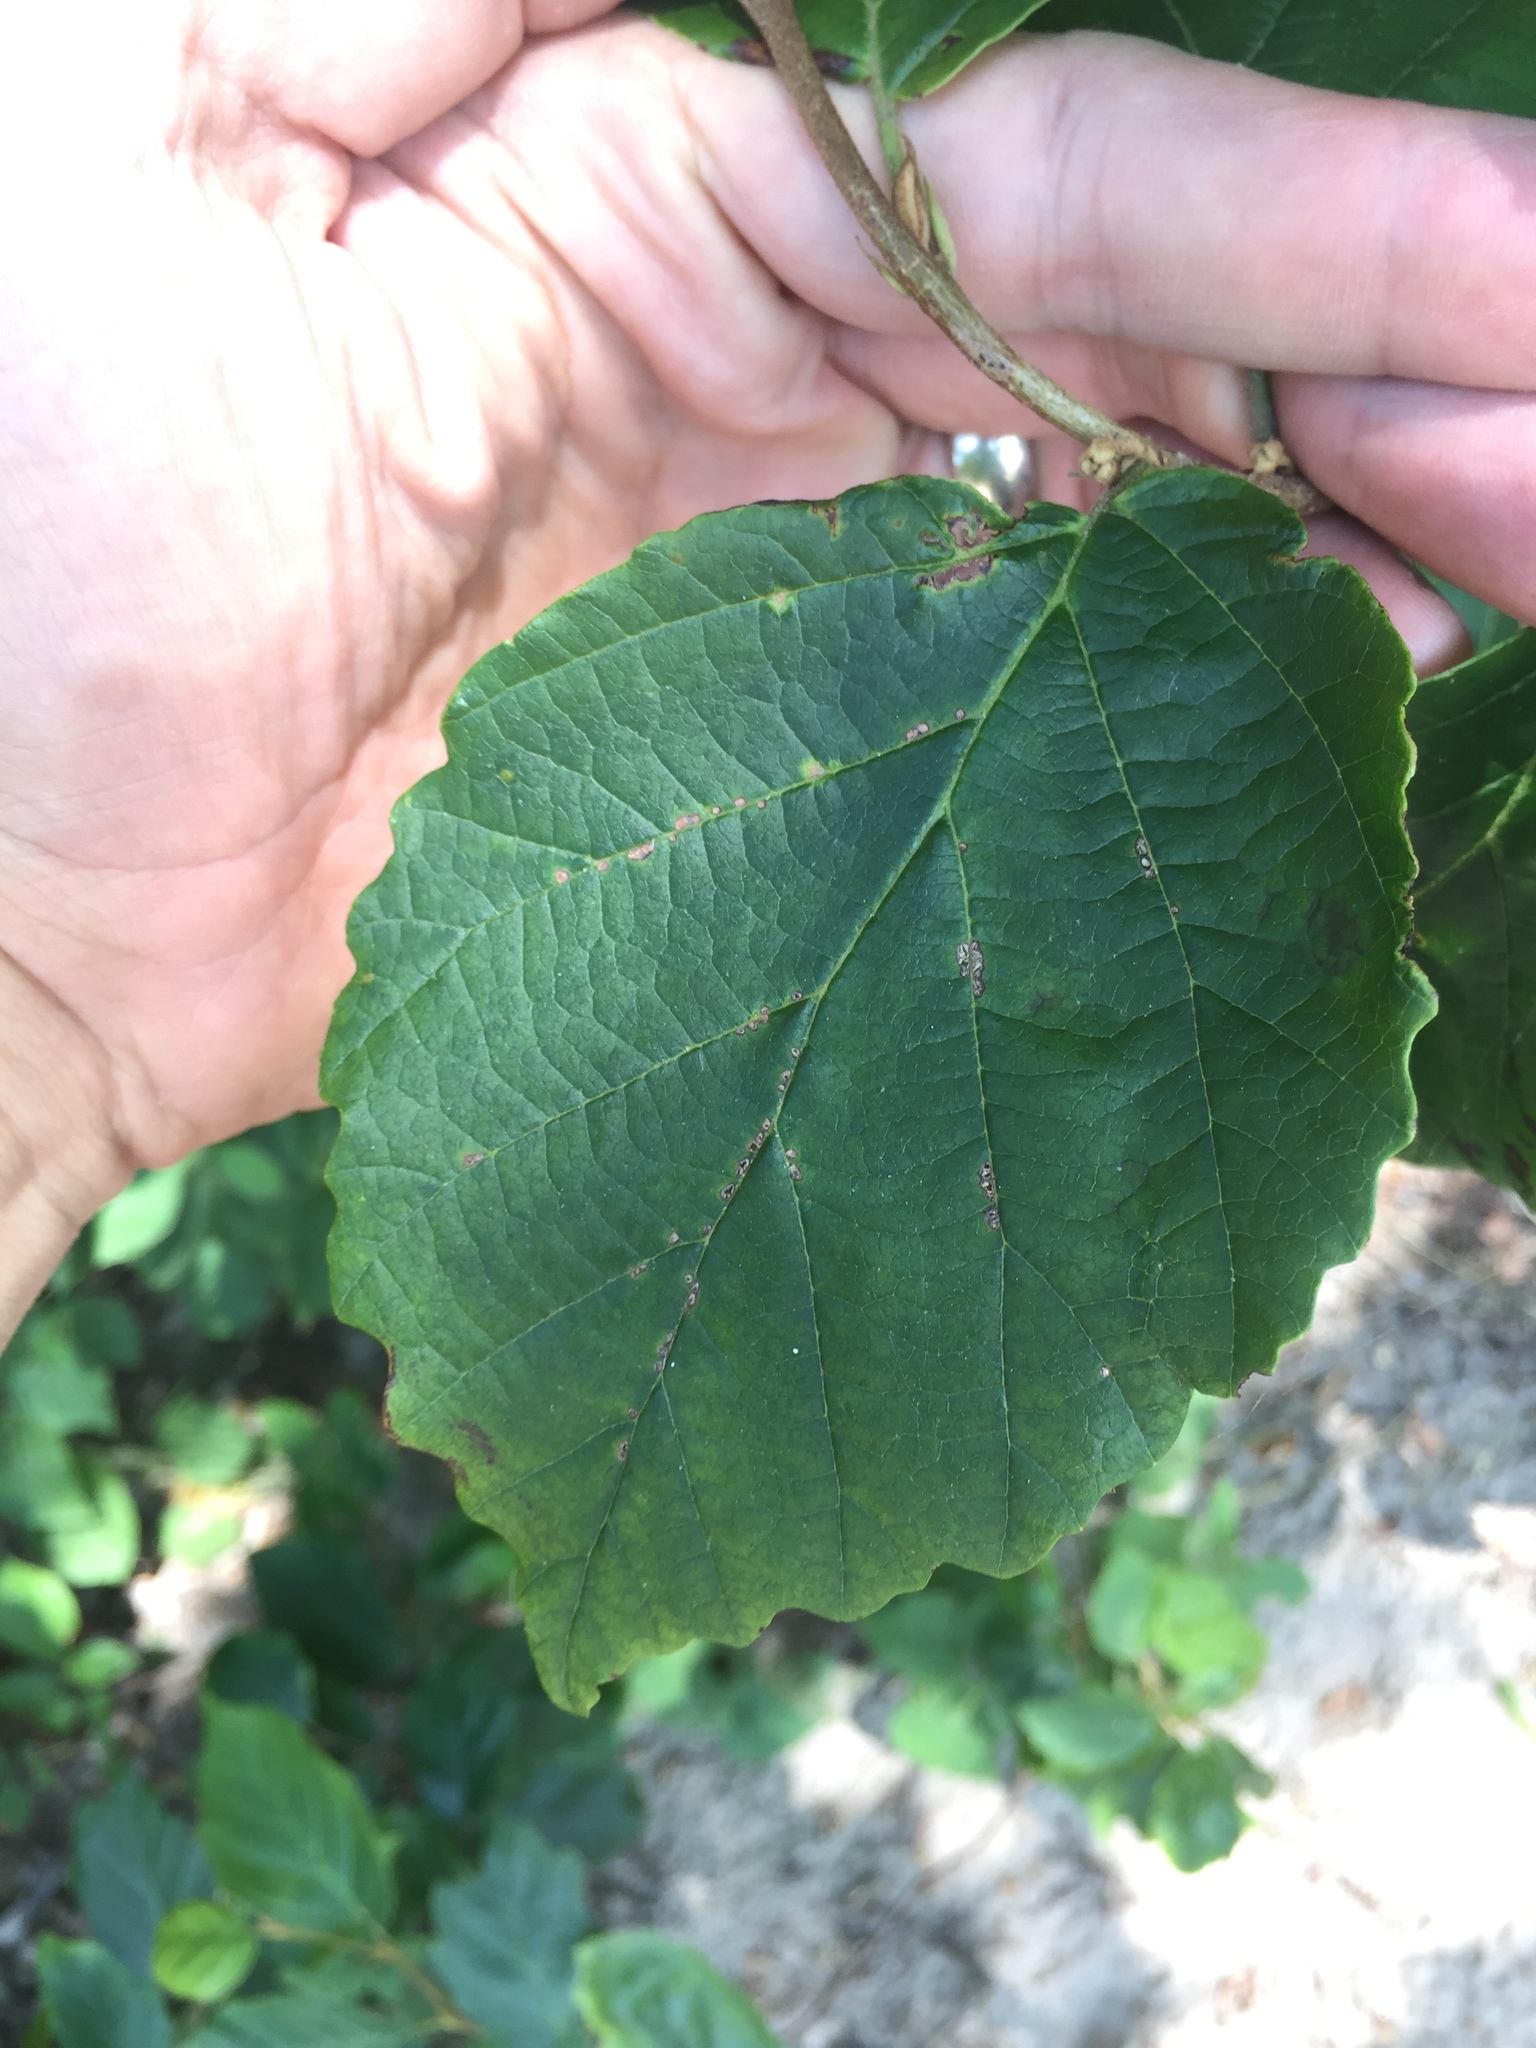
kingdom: Plantae
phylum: Tracheophyta
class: Magnoliopsida
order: Saxifragales
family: Hamamelidaceae
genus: Hamamelis
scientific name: Hamamelis virginiana
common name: Witch-hazel
